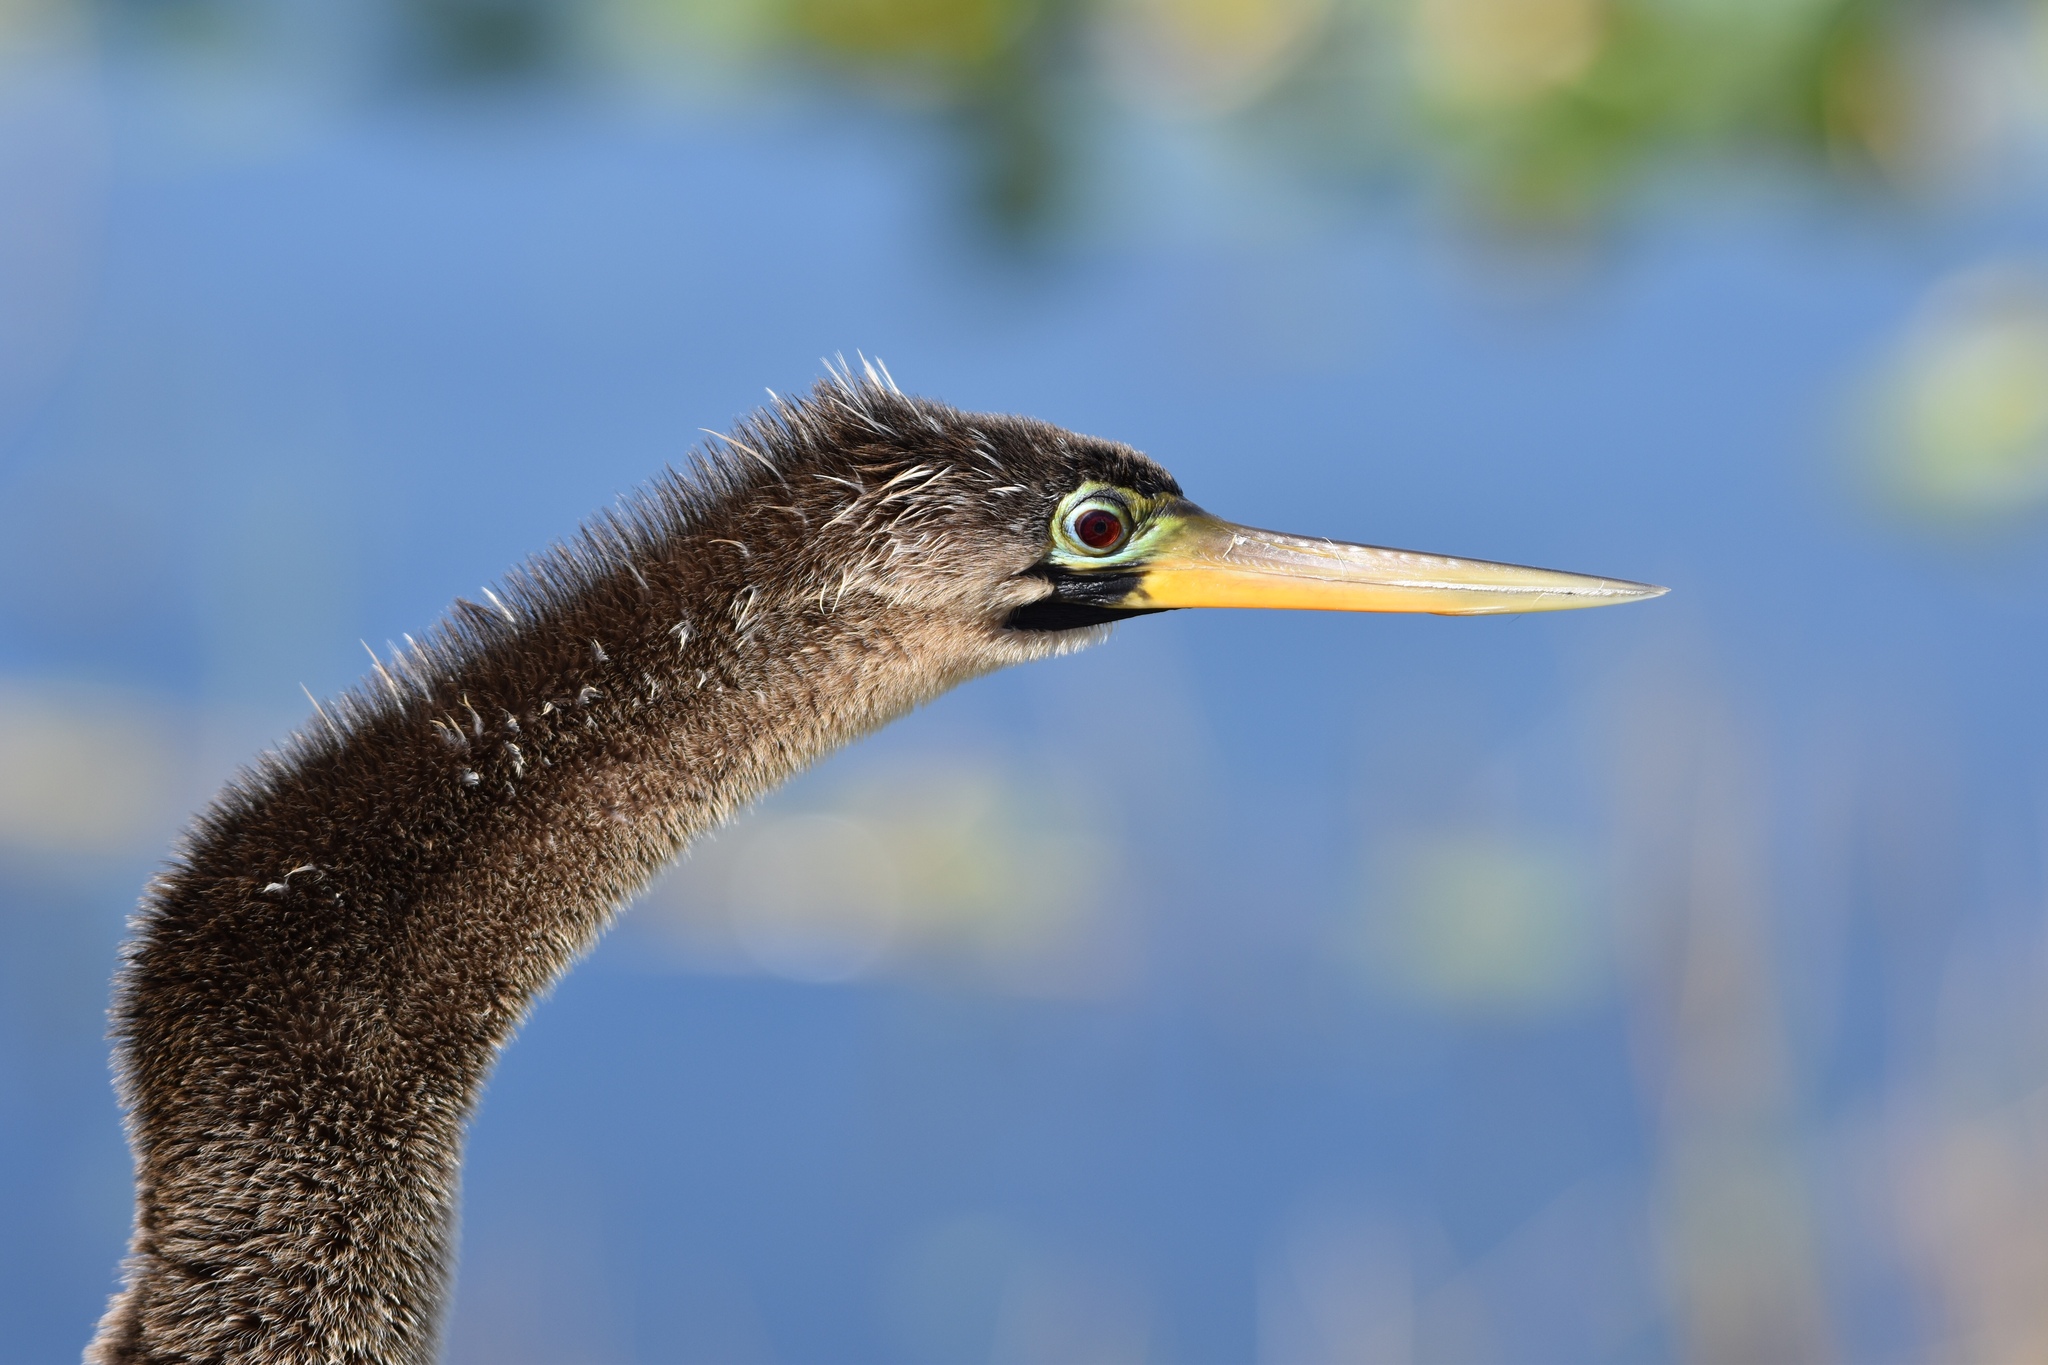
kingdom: Animalia
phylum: Chordata
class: Aves
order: Suliformes
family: Anhingidae
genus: Anhinga
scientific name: Anhinga anhinga
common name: Anhinga
